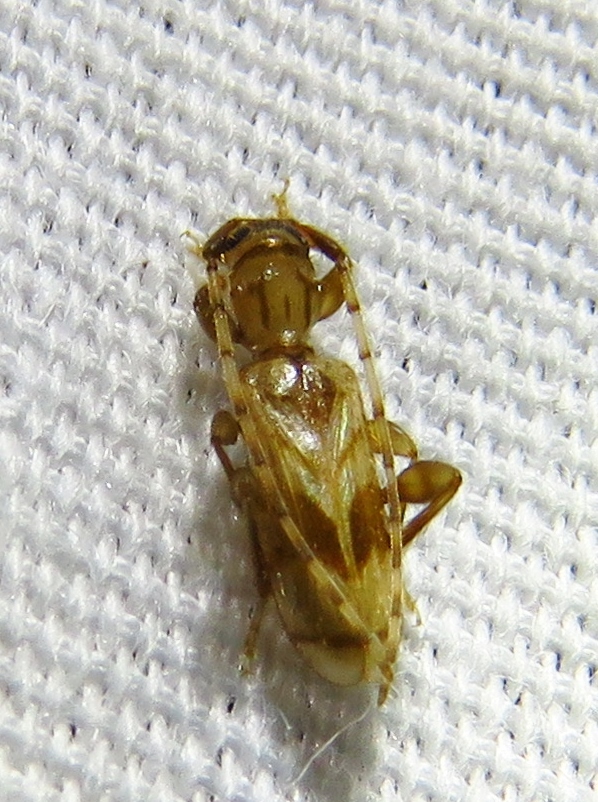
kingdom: Animalia
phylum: Arthropoda
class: Insecta
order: Coleoptera
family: Cerambycidae
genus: Obrium
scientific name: Obrium maculatum
